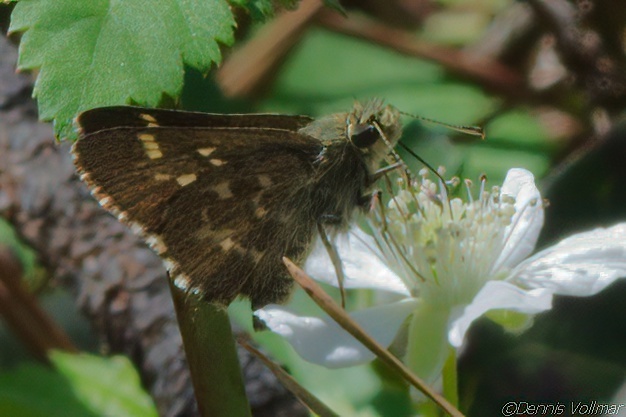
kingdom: Animalia
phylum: Arthropoda
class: Insecta
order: Lepidoptera
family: Hesperiidae
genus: Mastor
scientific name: Mastor hegon
